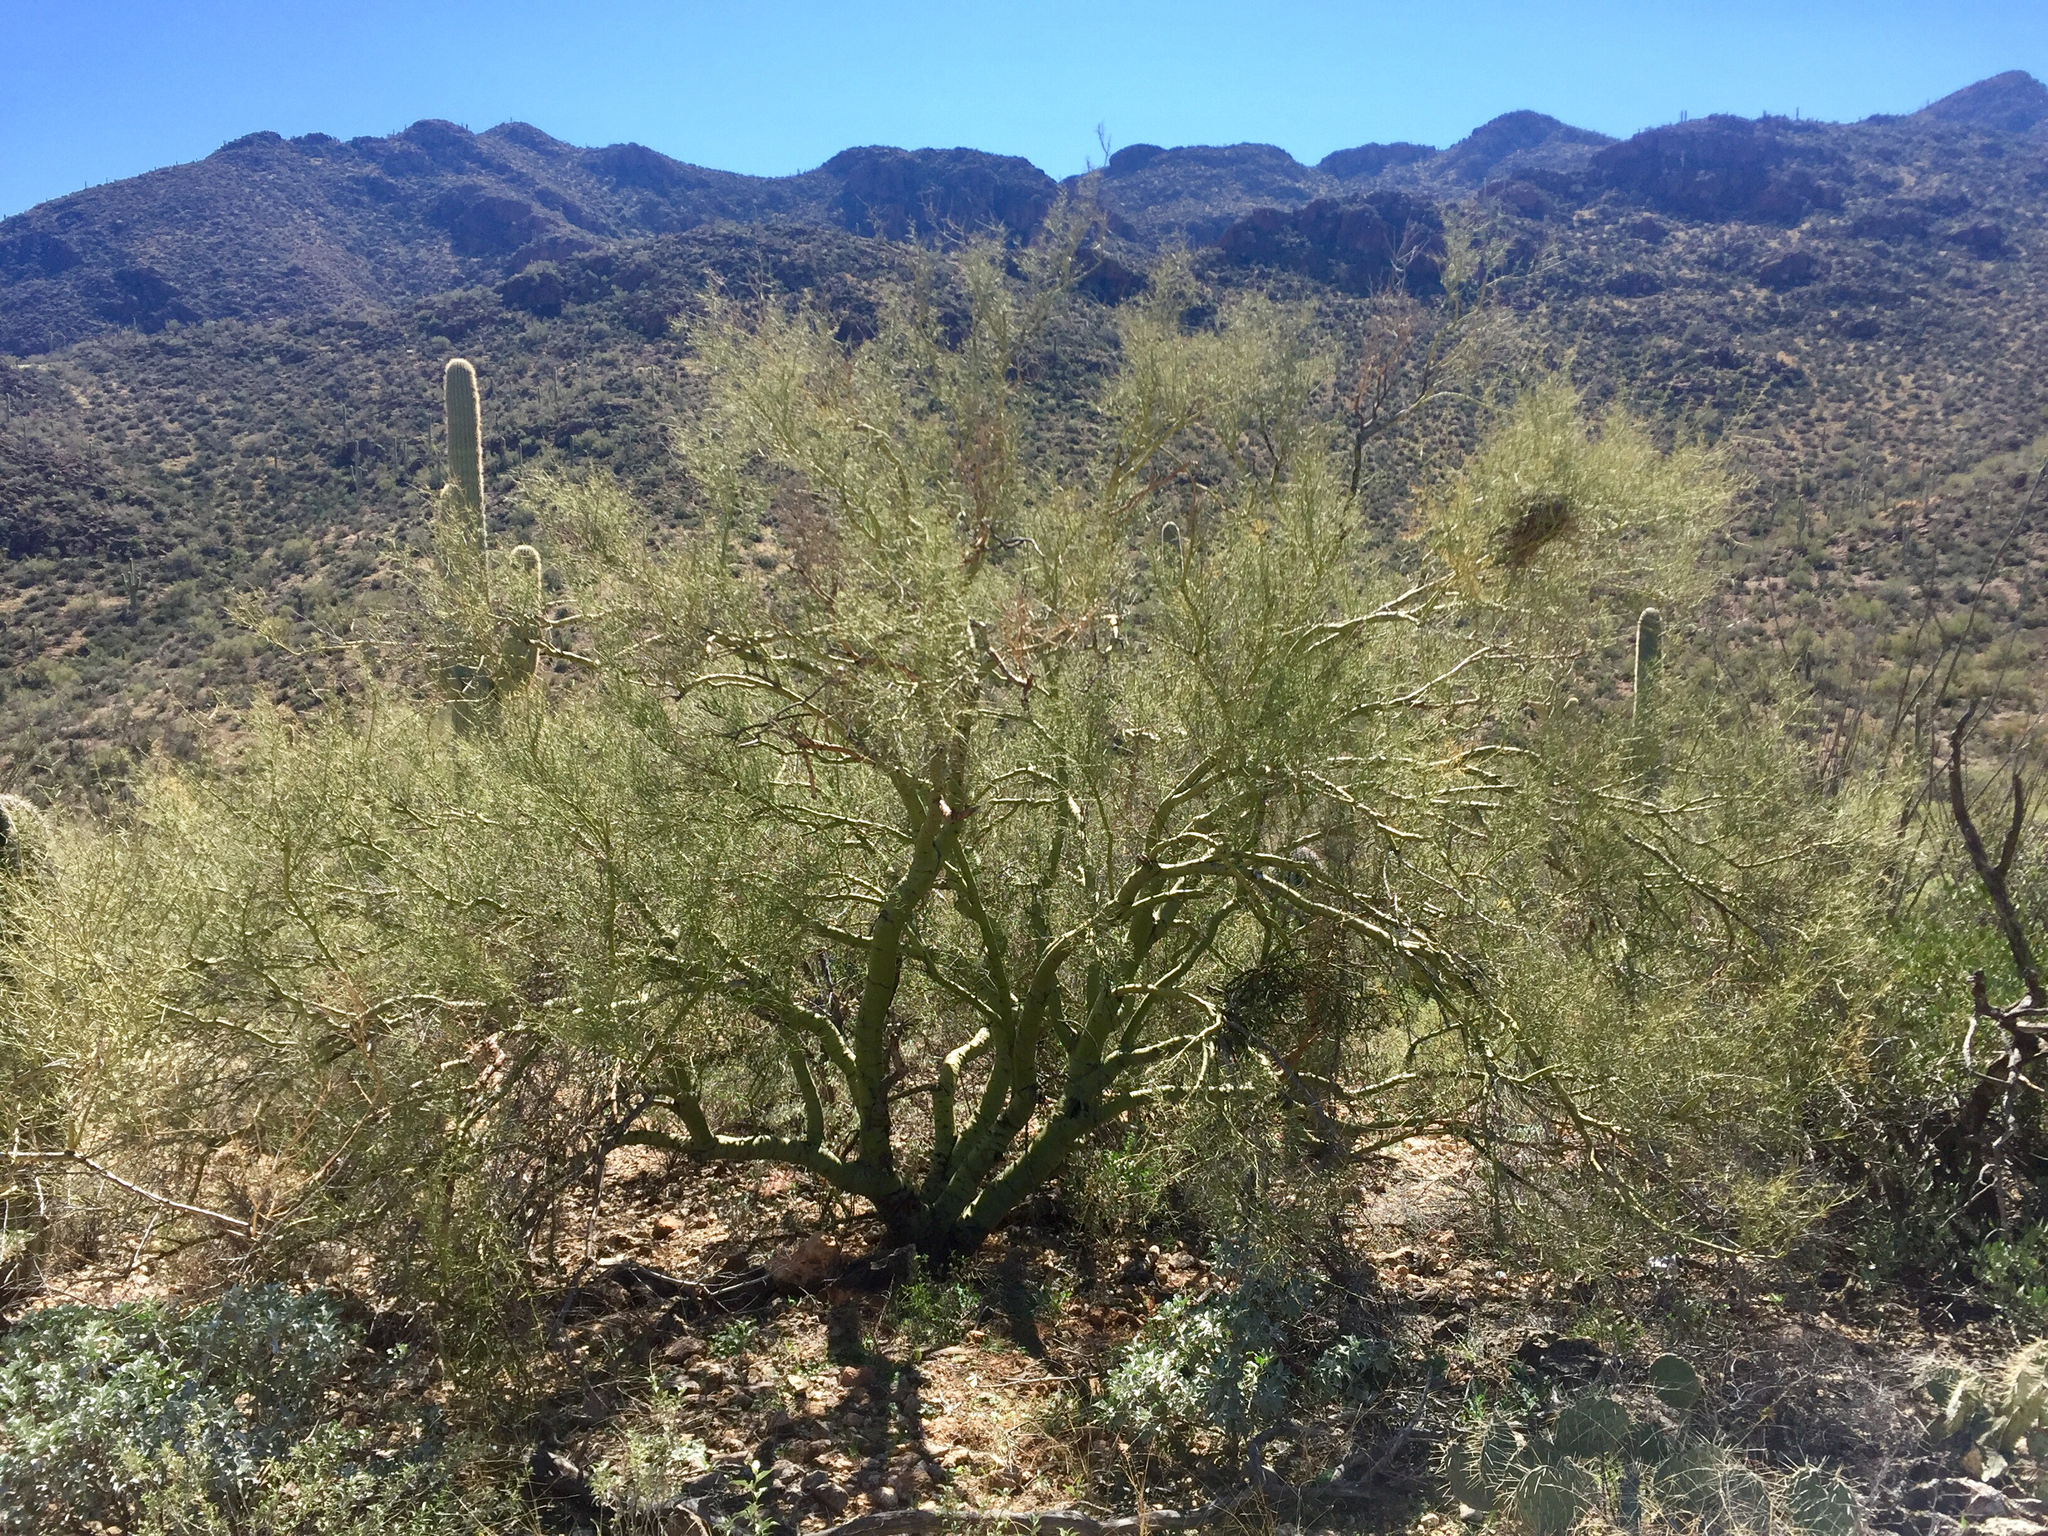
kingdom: Plantae
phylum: Tracheophyta
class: Magnoliopsida
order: Fabales
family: Fabaceae
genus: Parkinsonia
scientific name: Parkinsonia microphylla
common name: Yellow paloverde
